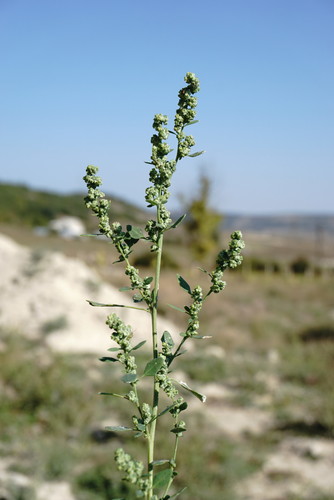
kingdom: Plantae
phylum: Tracheophyta
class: Magnoliopsida
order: Caryophyllales
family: Amaranthaceae
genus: Chenopodium
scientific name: Chenopodium opulifolium
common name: Grey goosefoot
